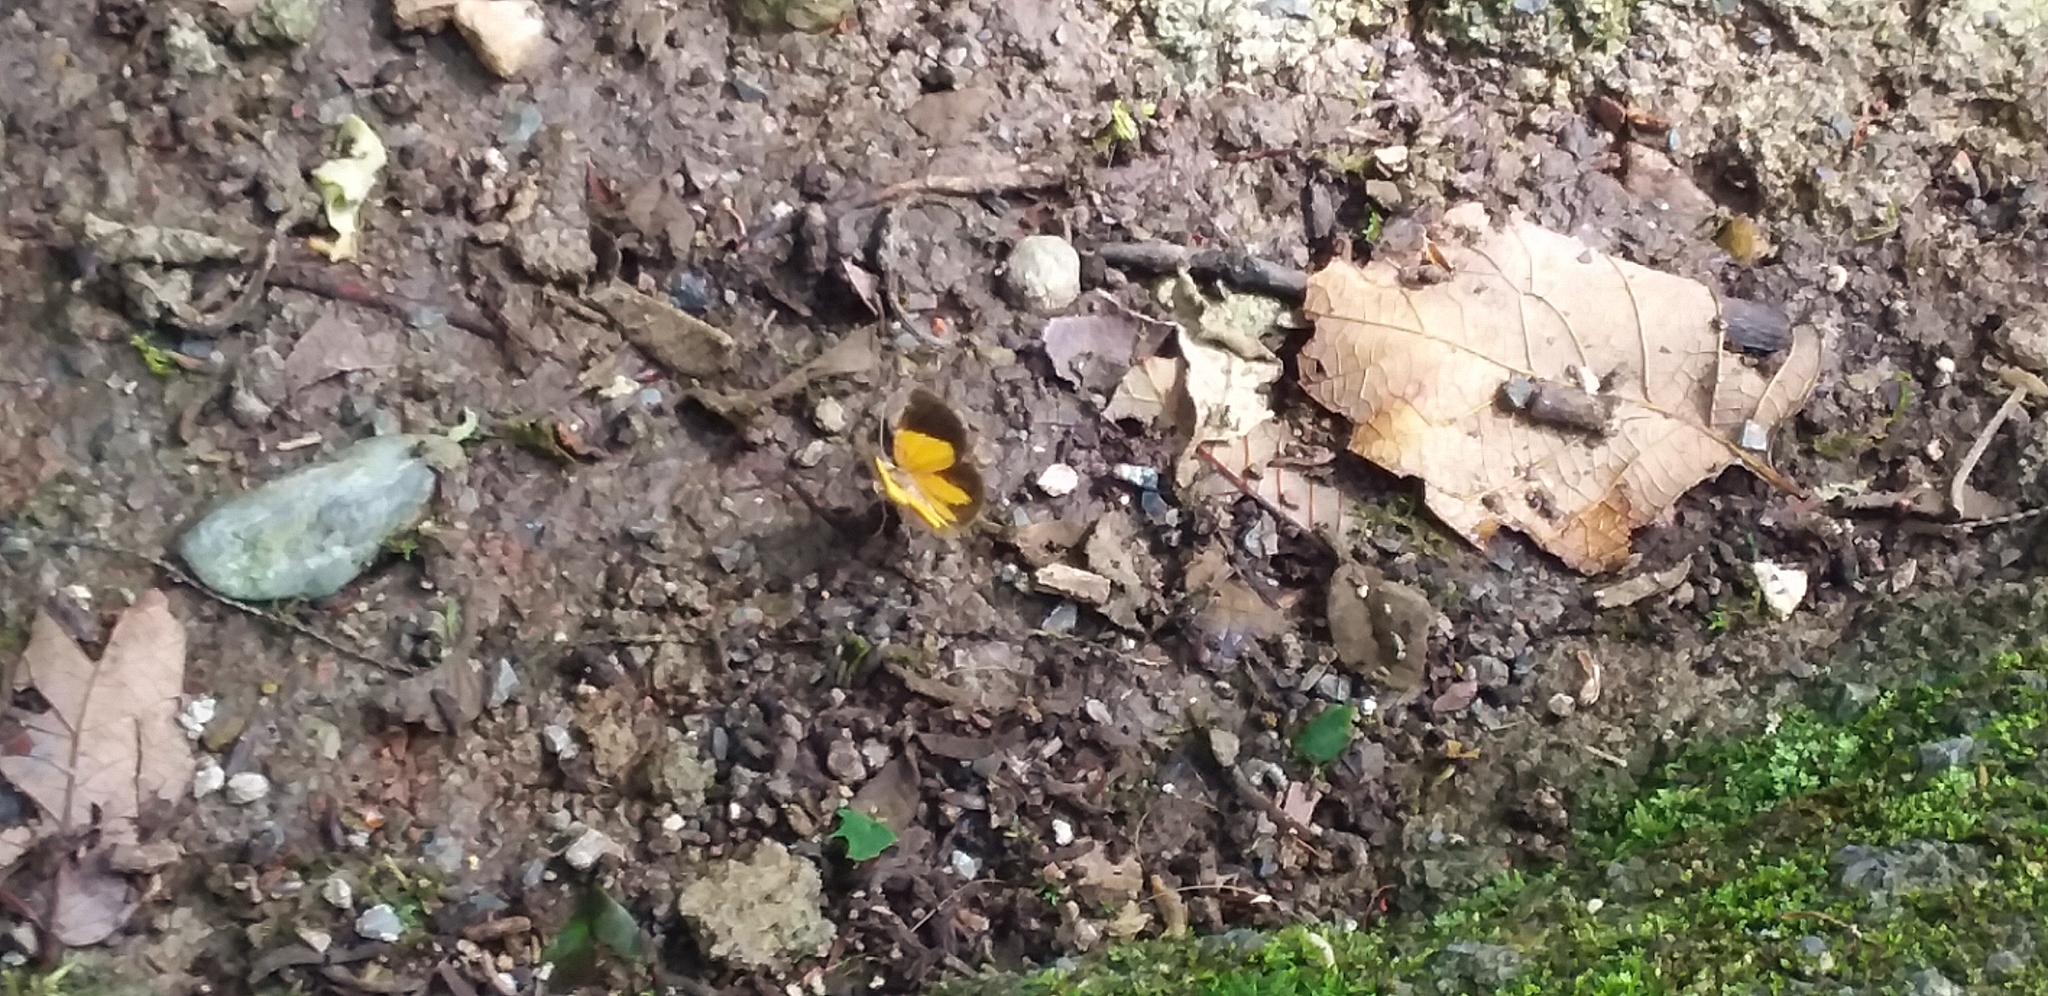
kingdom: Animalia
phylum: Arthropoda
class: Insecta
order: Lepidoptera
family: Geometridae
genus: Heterusia
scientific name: Heterusia atalantata
